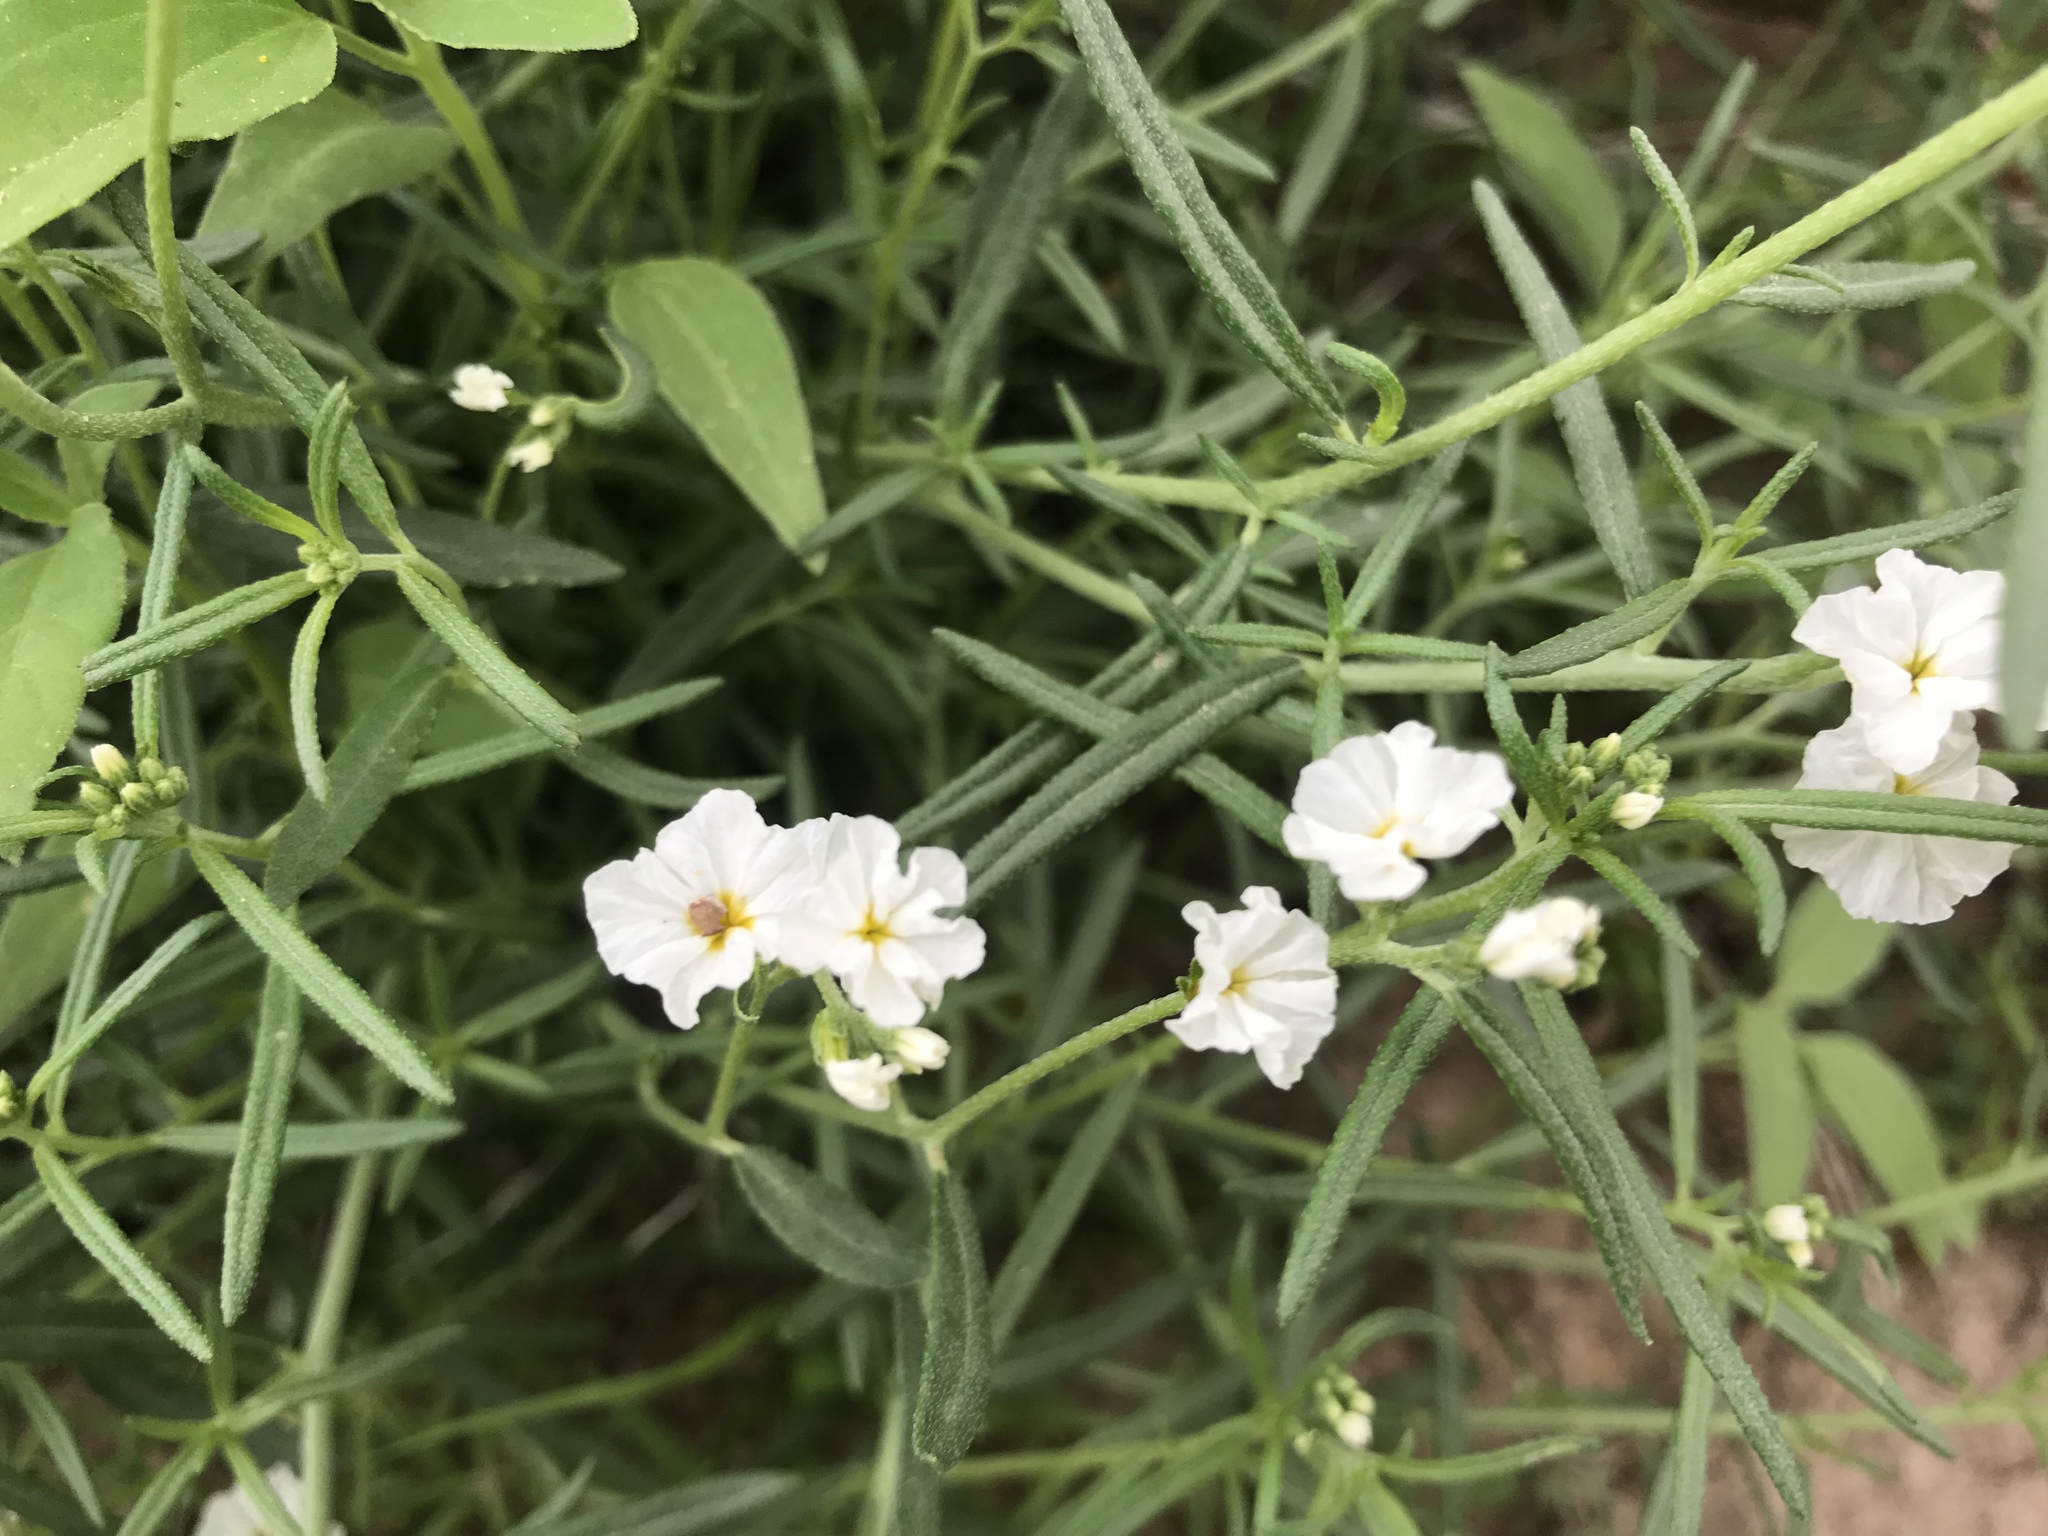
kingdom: Plantae
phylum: Tracheophyta
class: Magnoliopsida
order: Boraginales
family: Heliotropiaceae
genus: Euploca
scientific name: Euploca greggii
